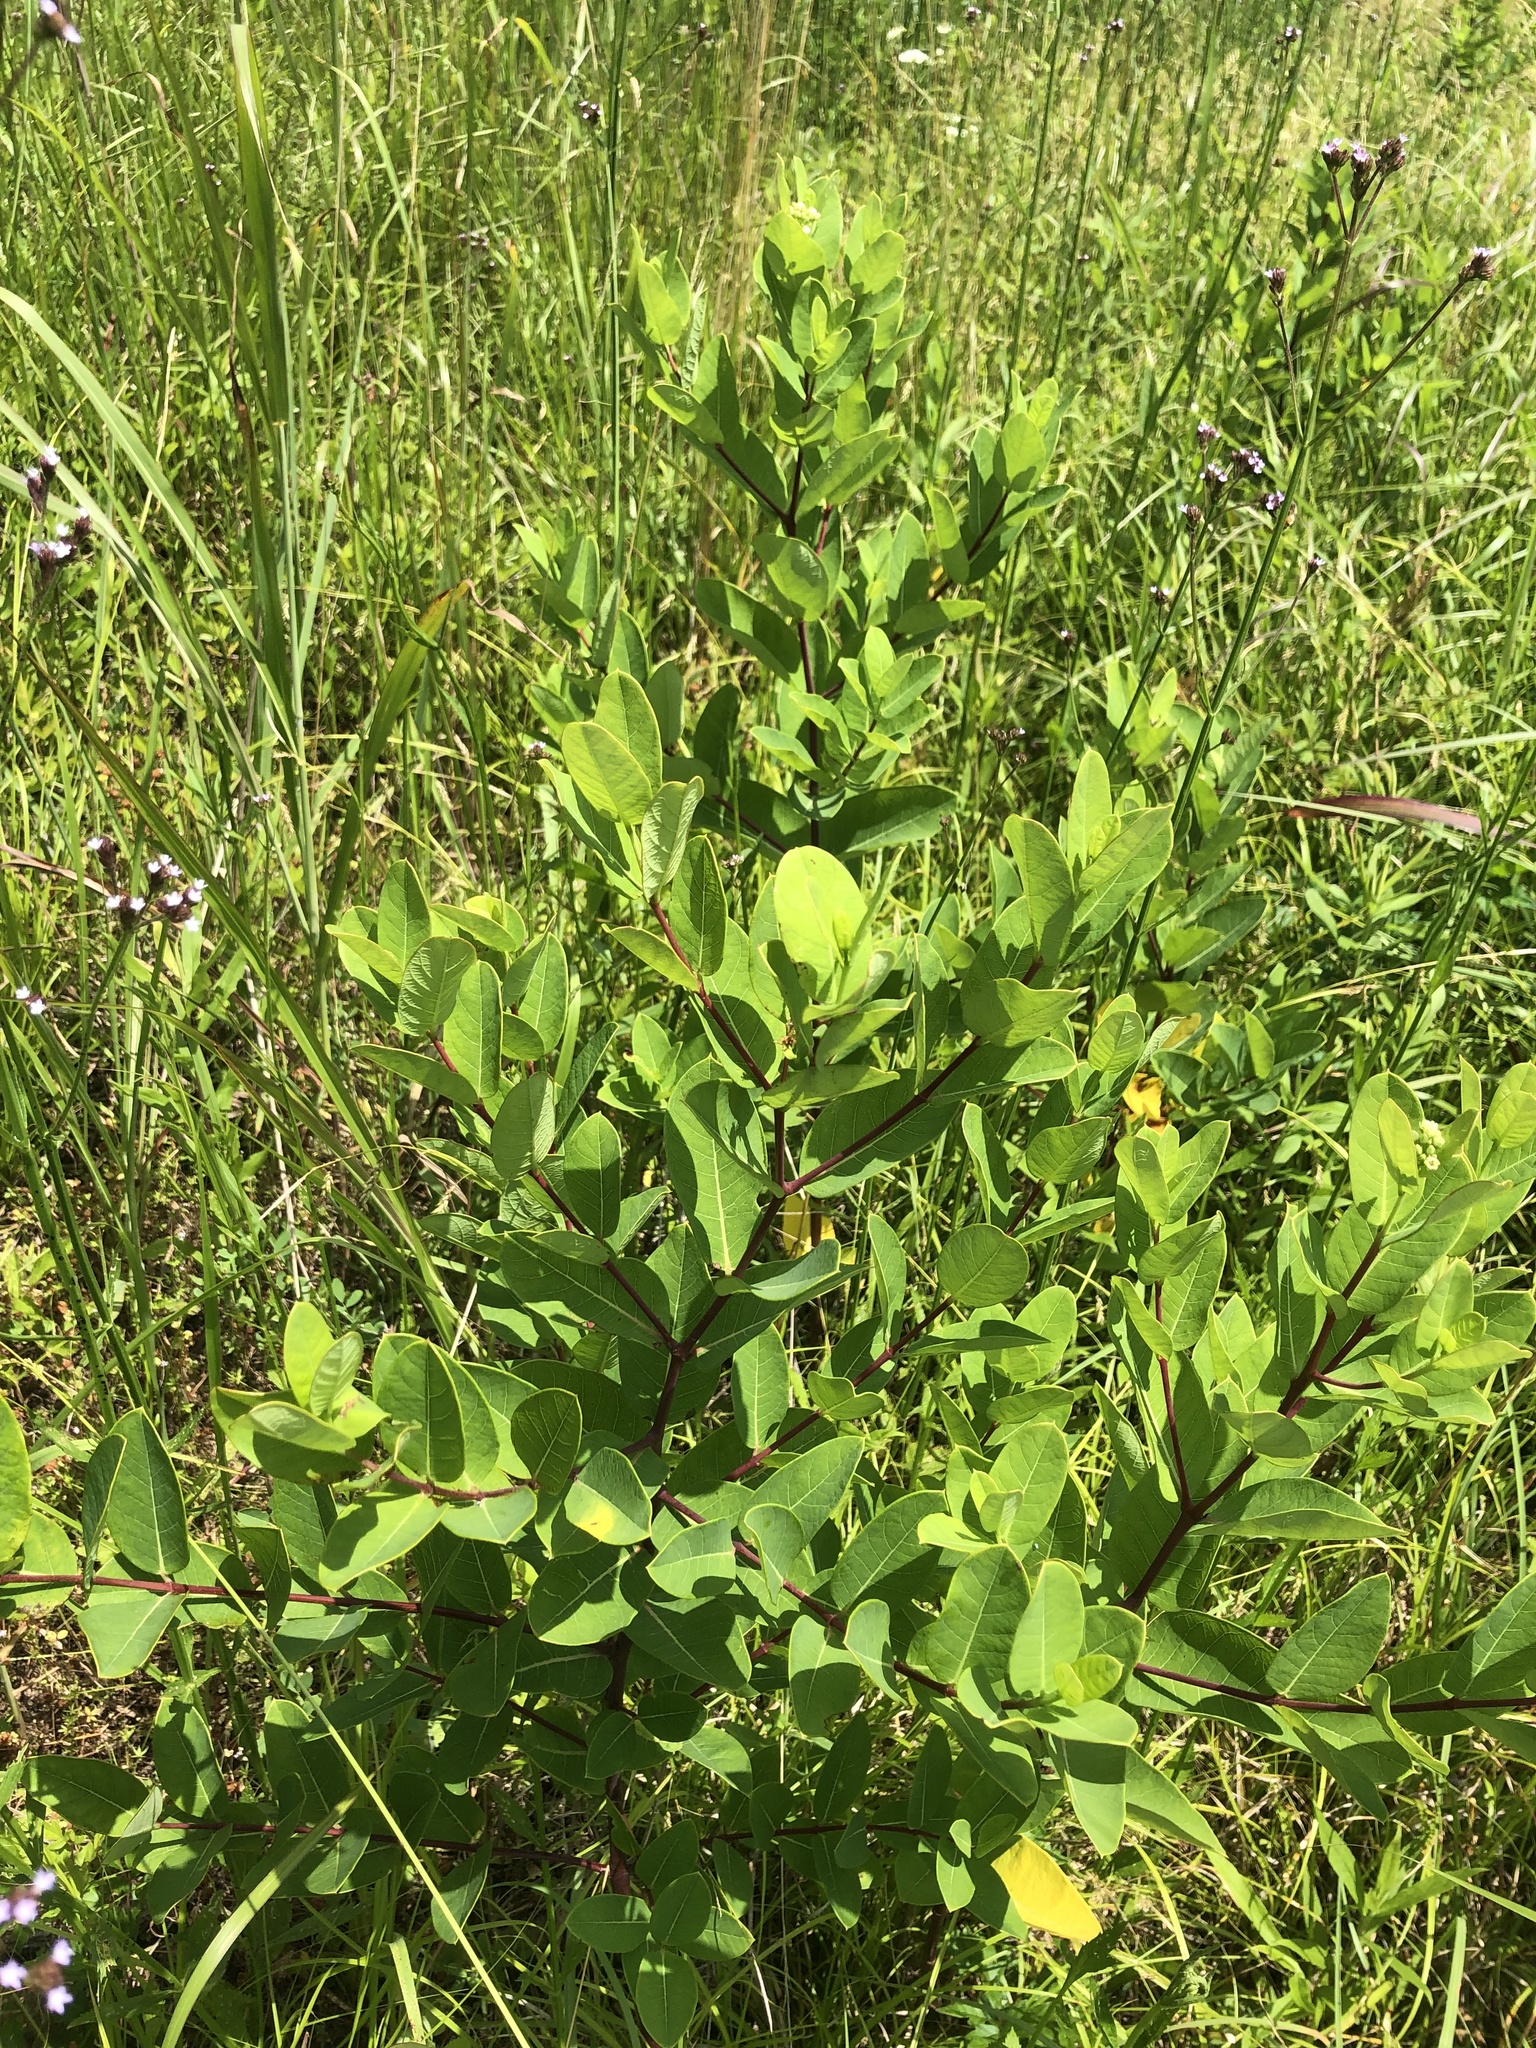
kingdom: Plantae
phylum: Tracheophyta
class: Magnoliopsida
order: Gentianales
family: Apocynaceae
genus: Apocynum
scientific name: Apocynum cannabinum
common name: Hemp dogbane
